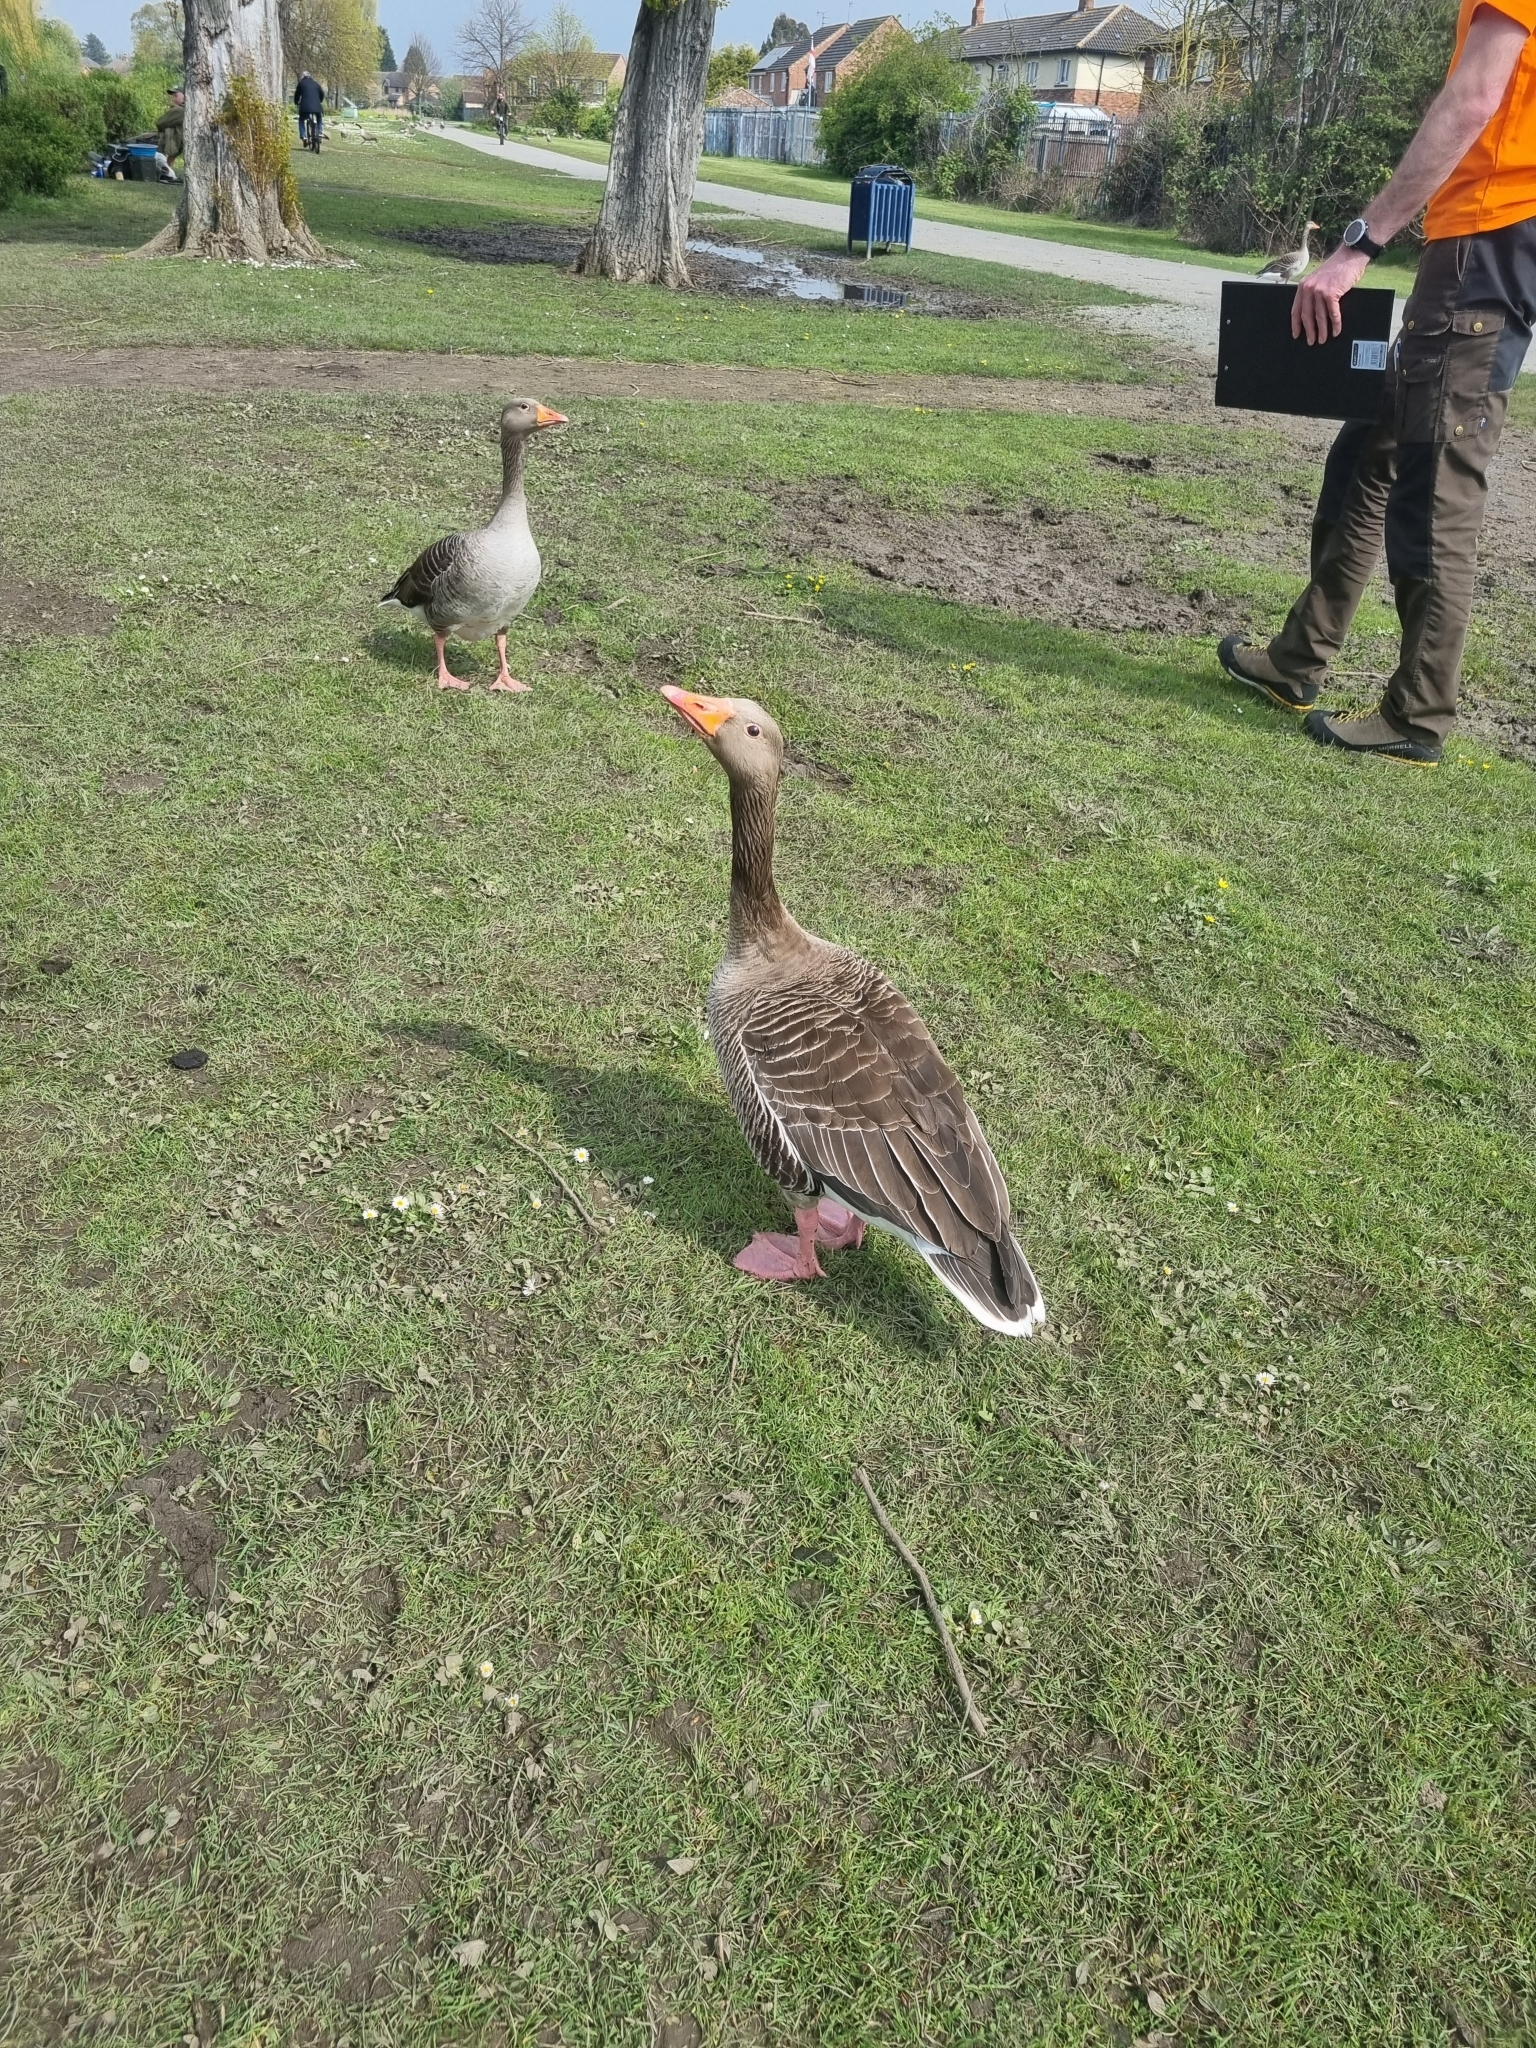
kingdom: Animalia
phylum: Chordata
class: Aves
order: Anseriformes
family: Anatidae
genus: Anser
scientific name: Anser anser
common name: Greylag goose
